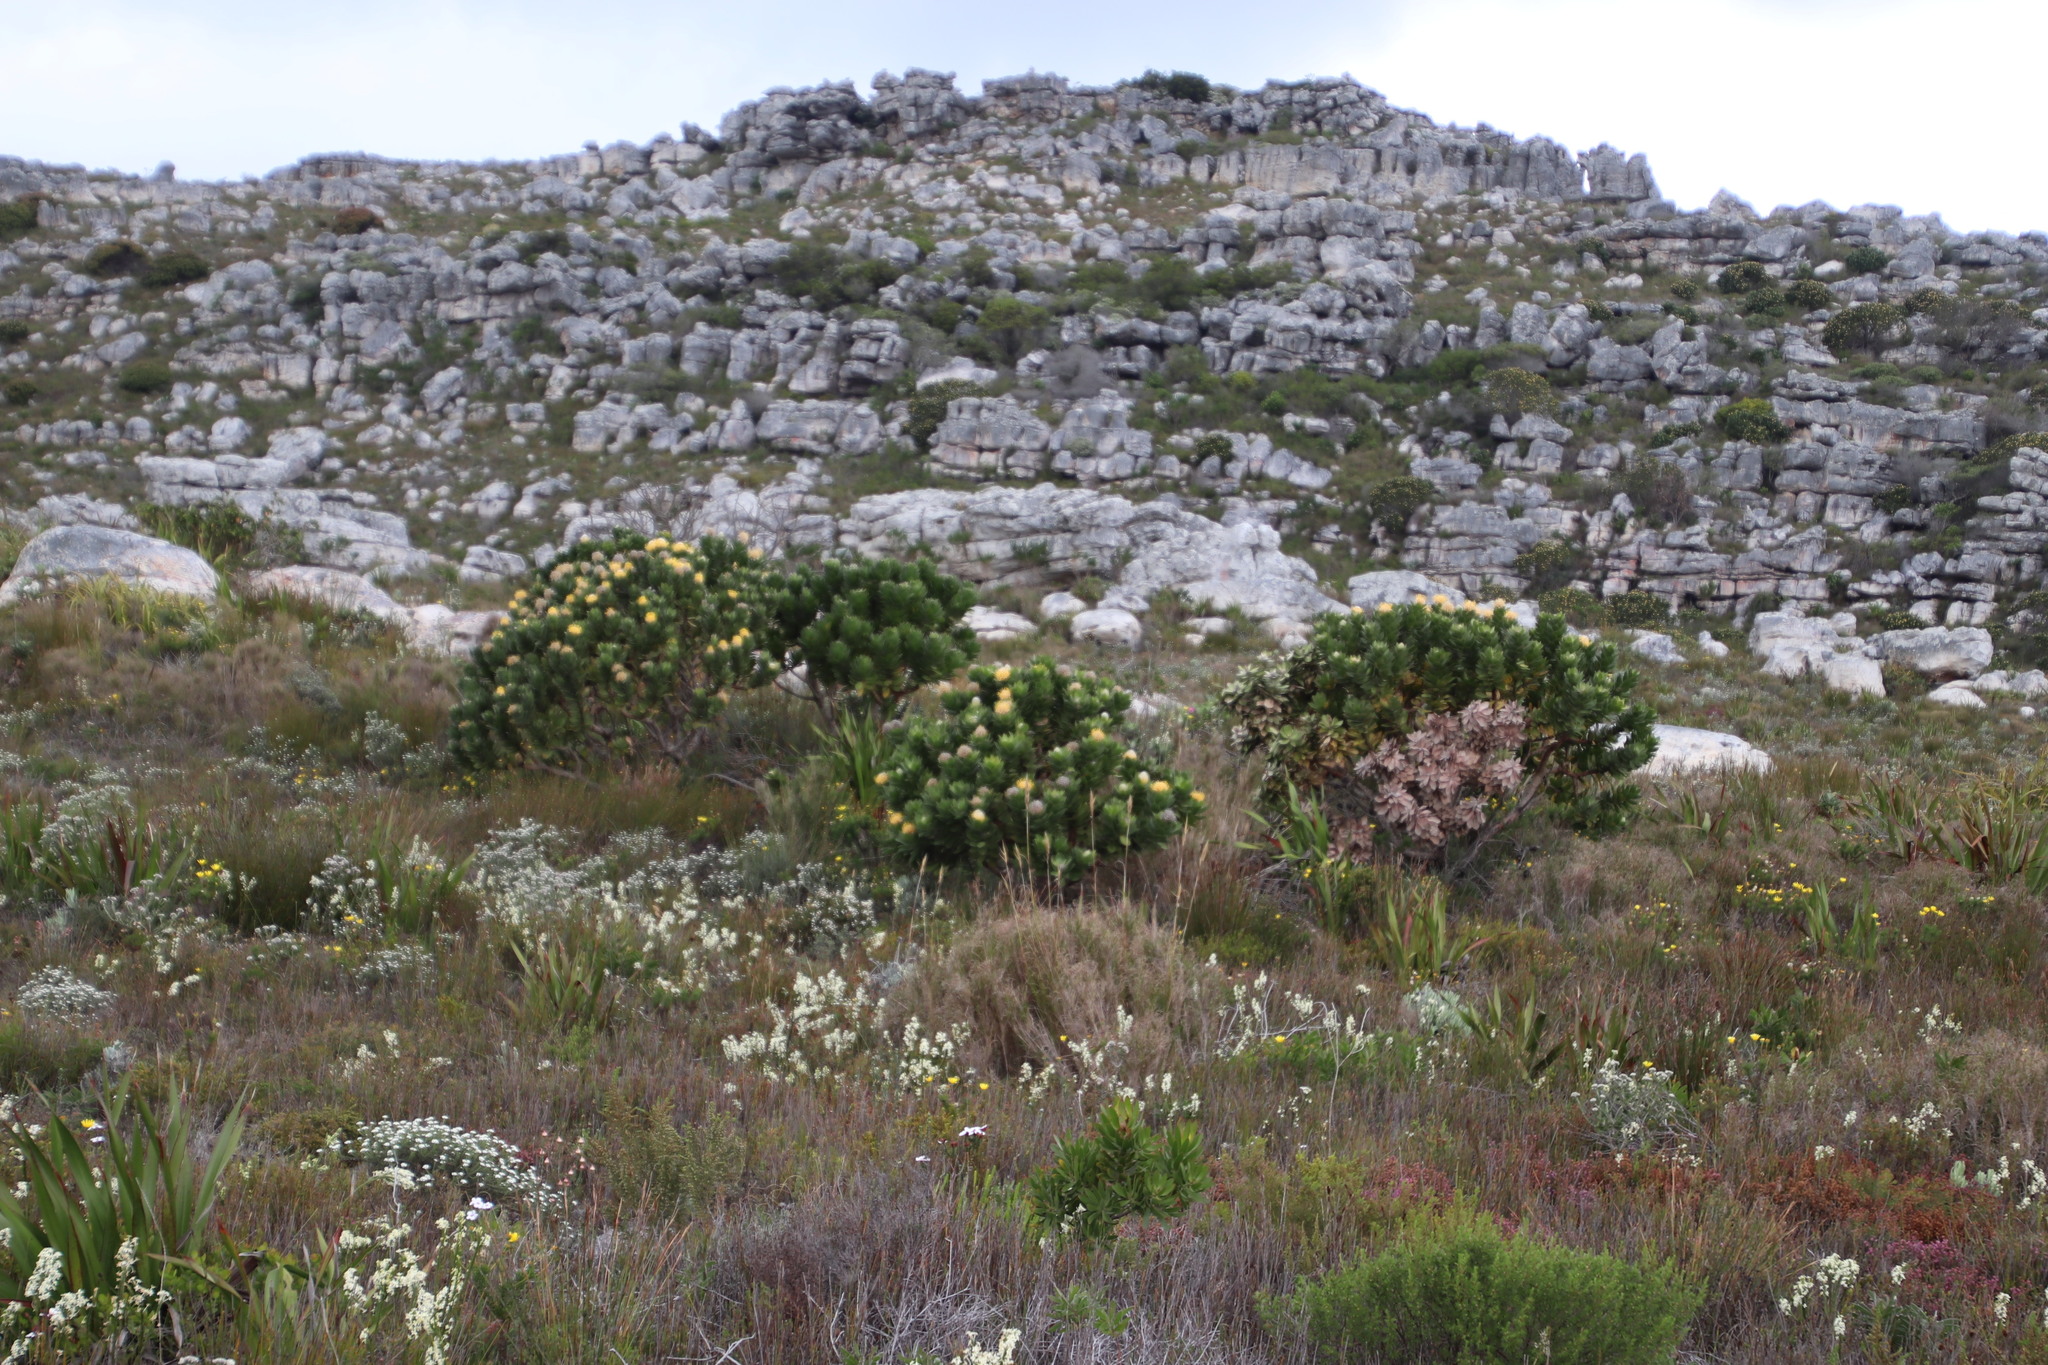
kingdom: Plantae
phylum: Tracheophyta
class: Magnoliopsida
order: Proteales
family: Proteaceae
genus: Leucospermum
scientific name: Leucospermum conocarpodendron
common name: Tree pincushion
